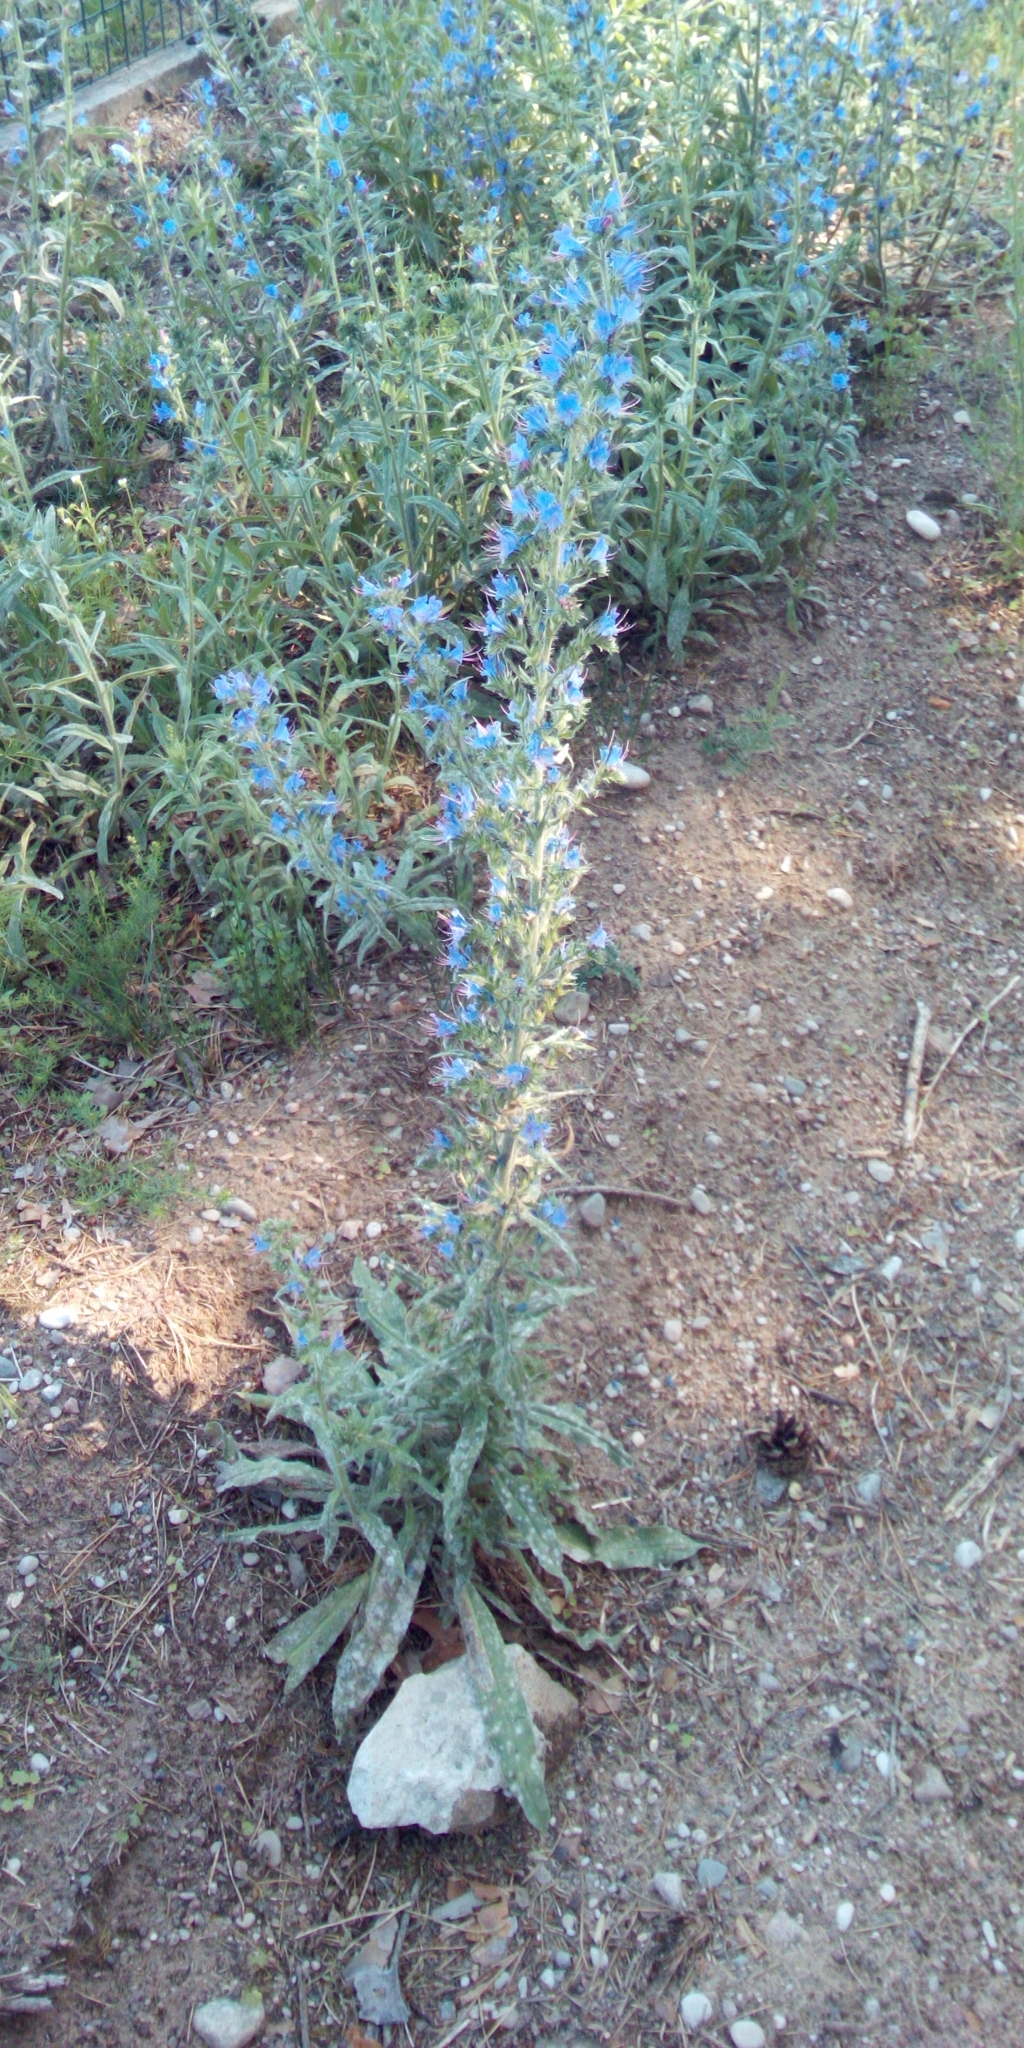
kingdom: Plantae
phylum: Tracheophyta
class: Magnoliopsida
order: Boraginales
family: Boraginaceae
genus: Echium
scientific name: Echium vulgare
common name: Common viper's bugloss
